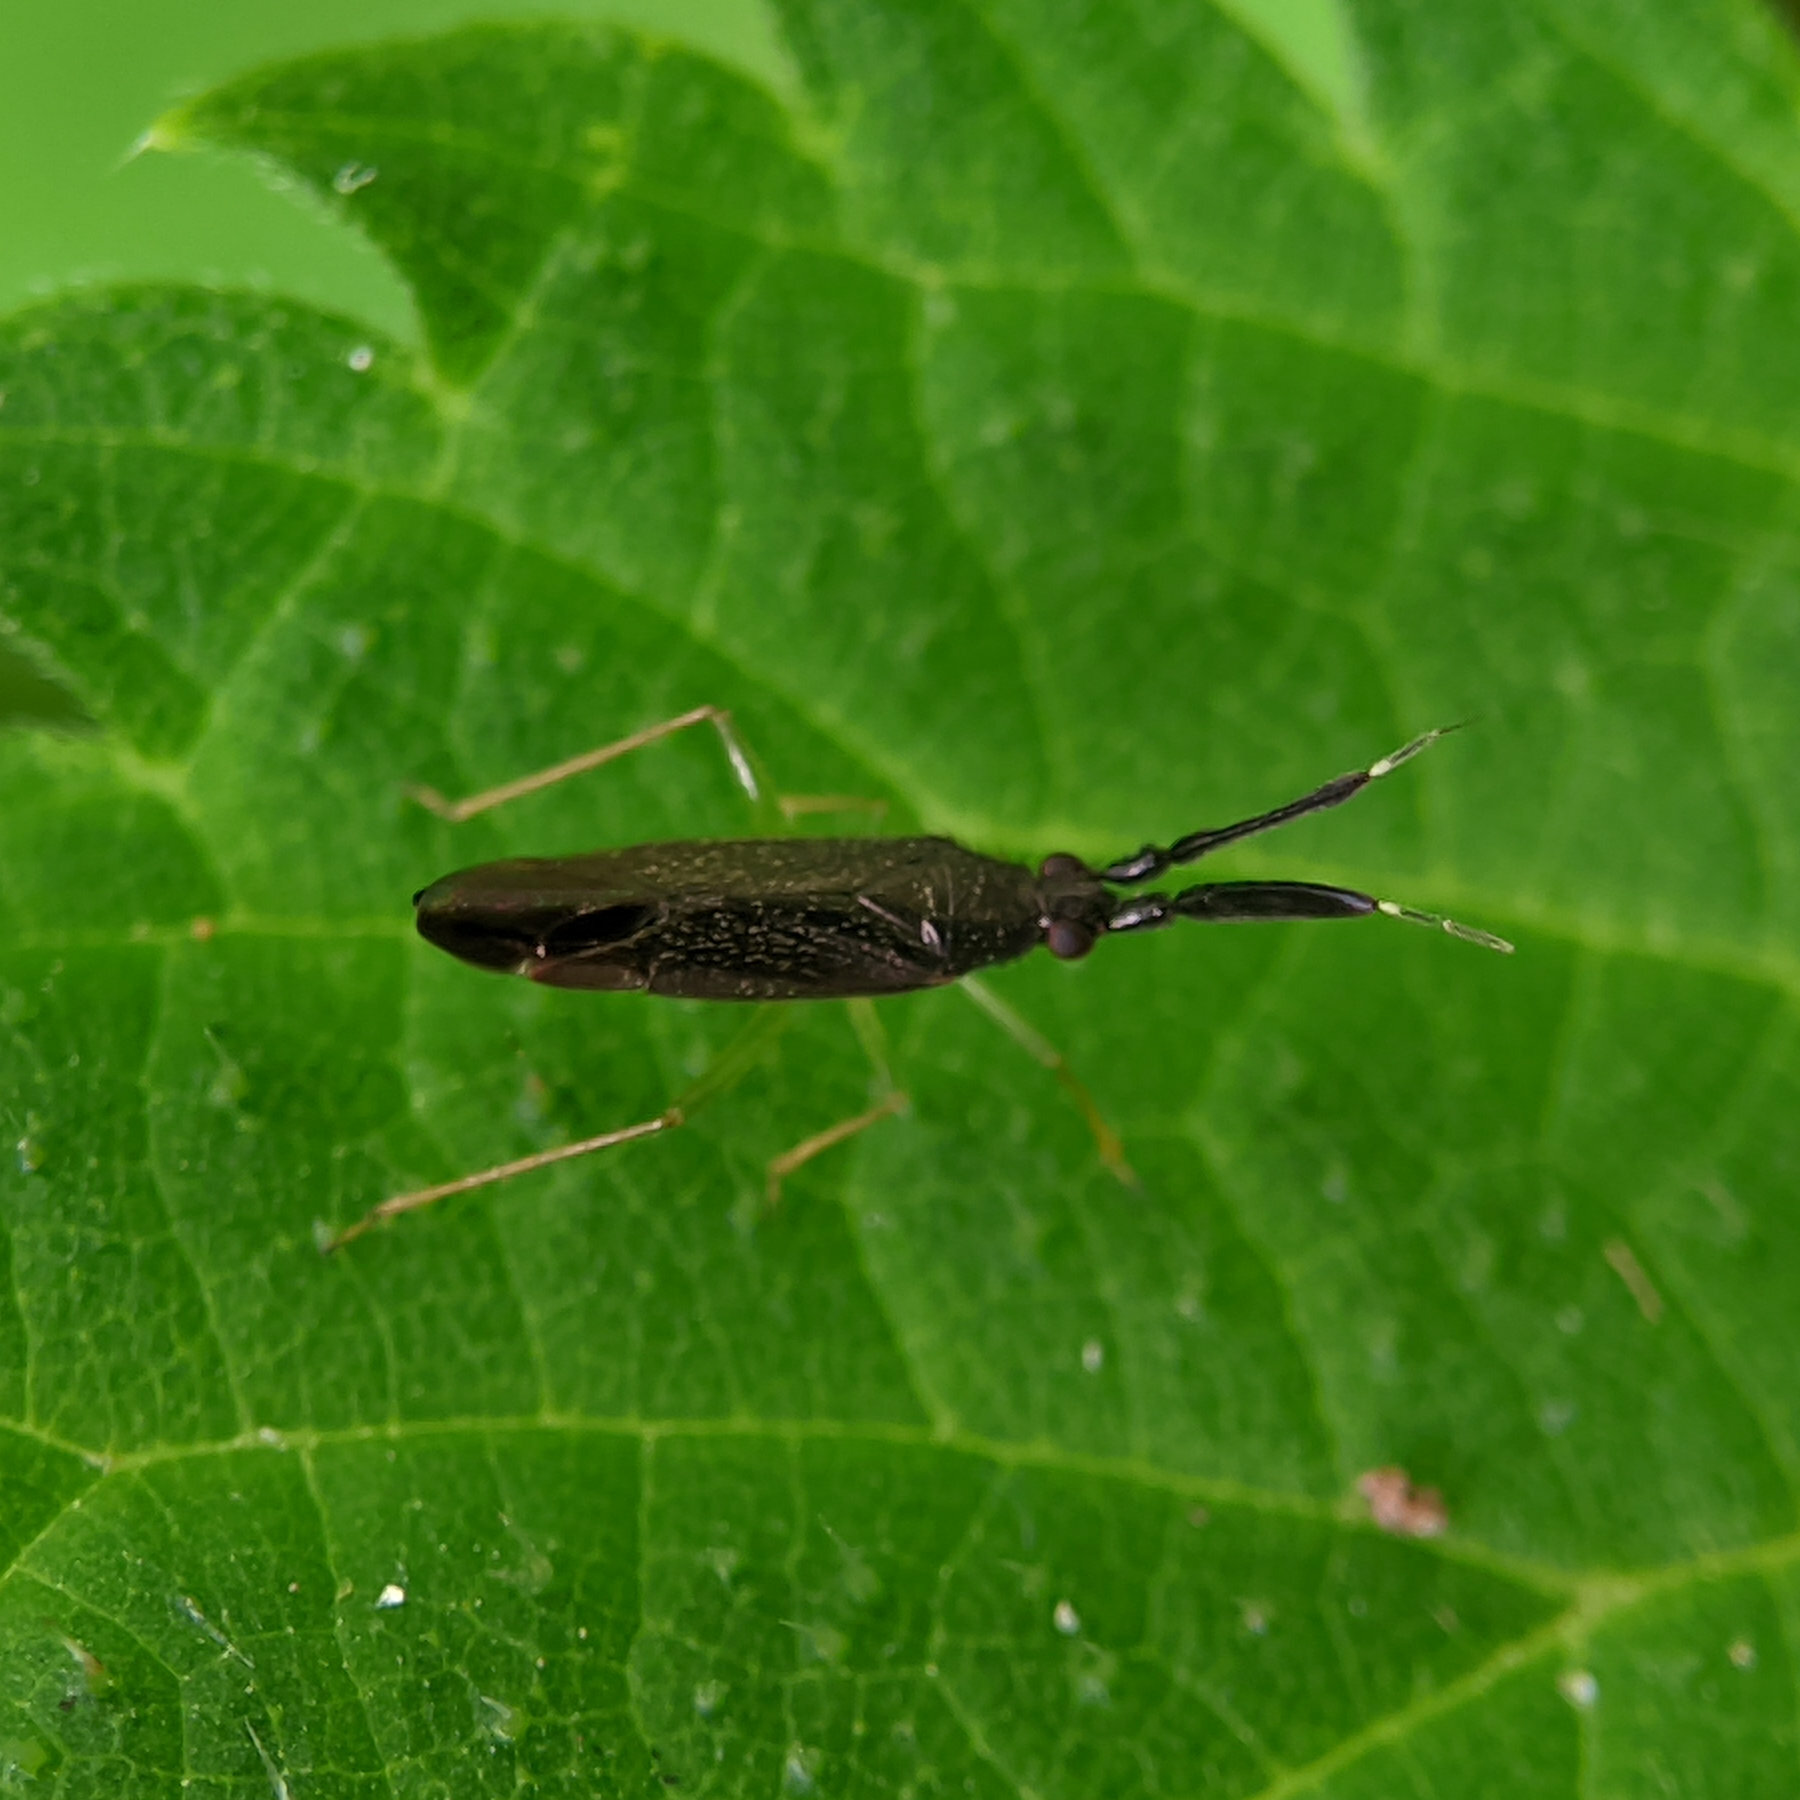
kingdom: Animalia
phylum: Arthropoda
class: Insecta
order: Hemiptera
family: Miridae
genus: Heterotoma
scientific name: Heterotoma planicornis
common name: Plant bug
